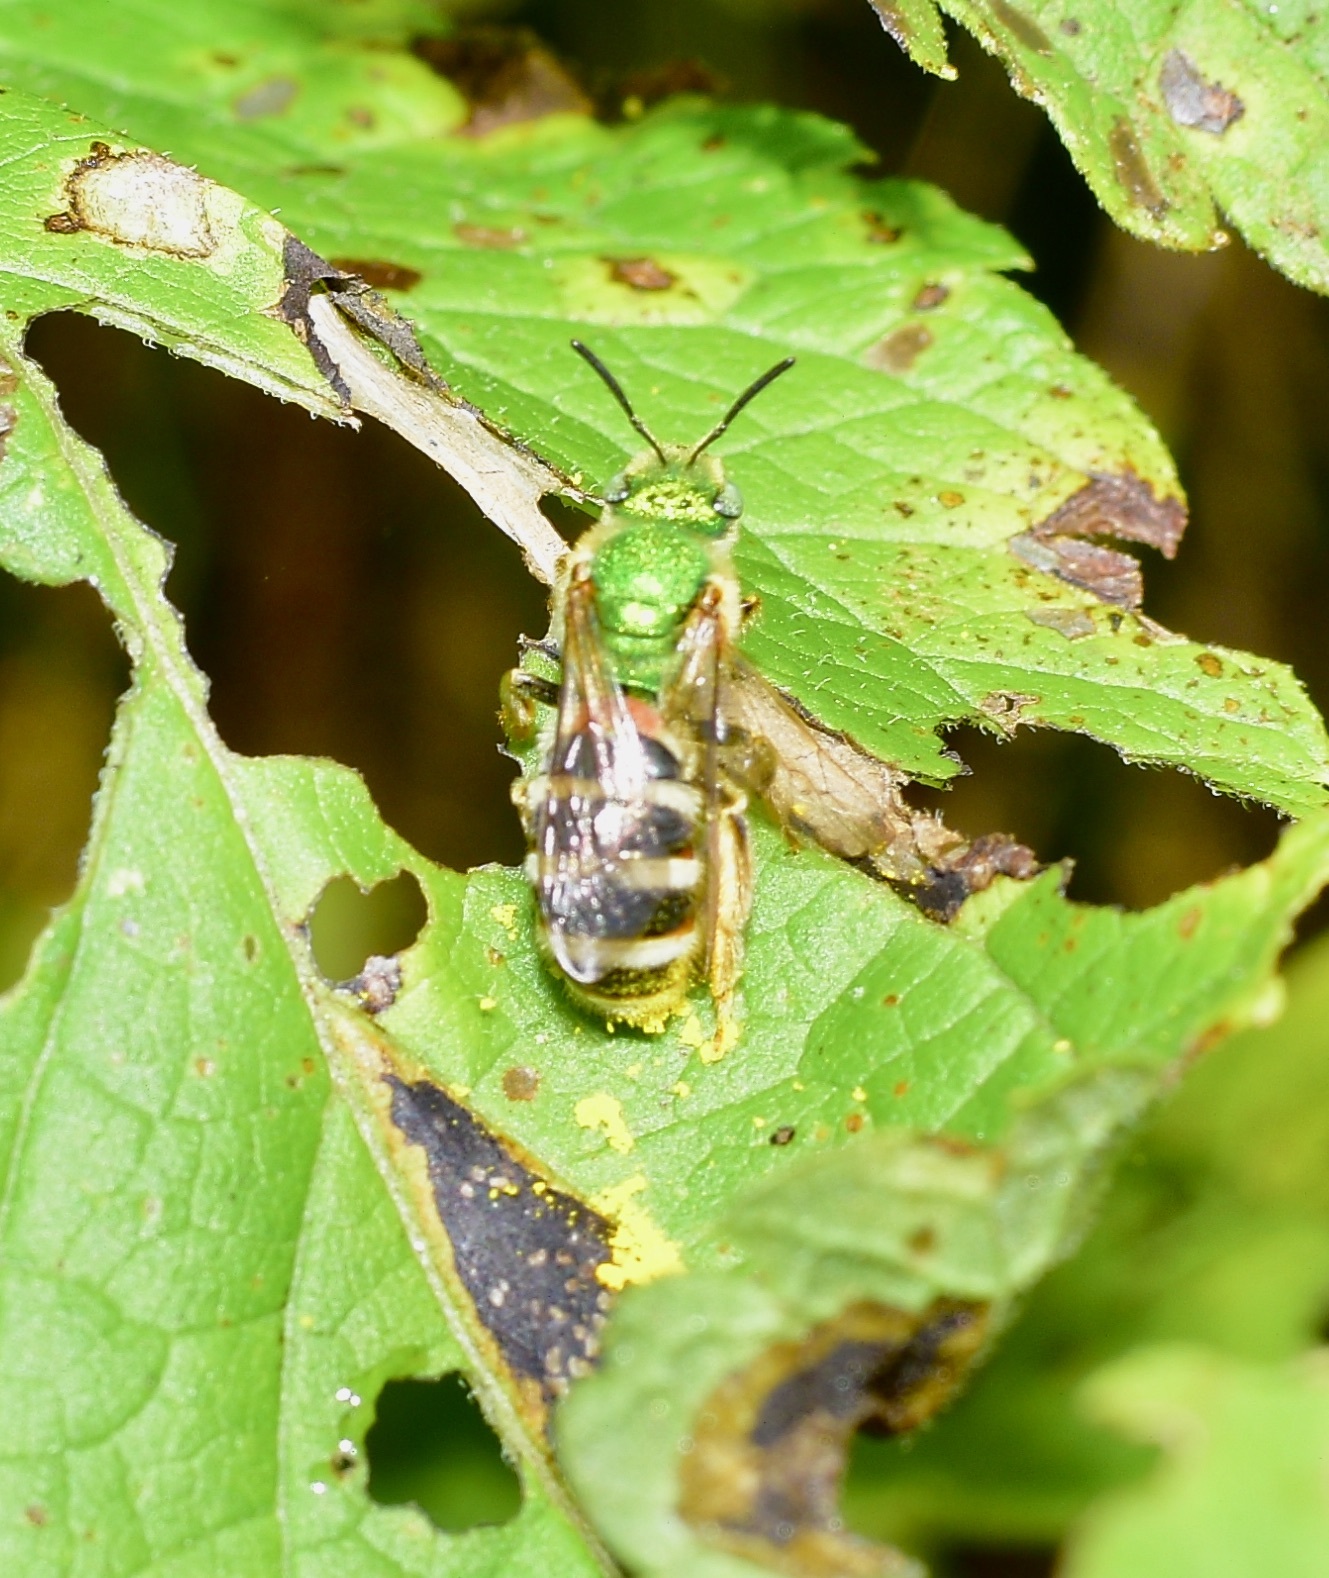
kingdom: Animalia
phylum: Arthropoda
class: Insecta
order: Hymenoptera
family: Halictidae
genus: Agapostemon
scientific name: Agapostemon virescens
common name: Bicolored striped sweat bee
